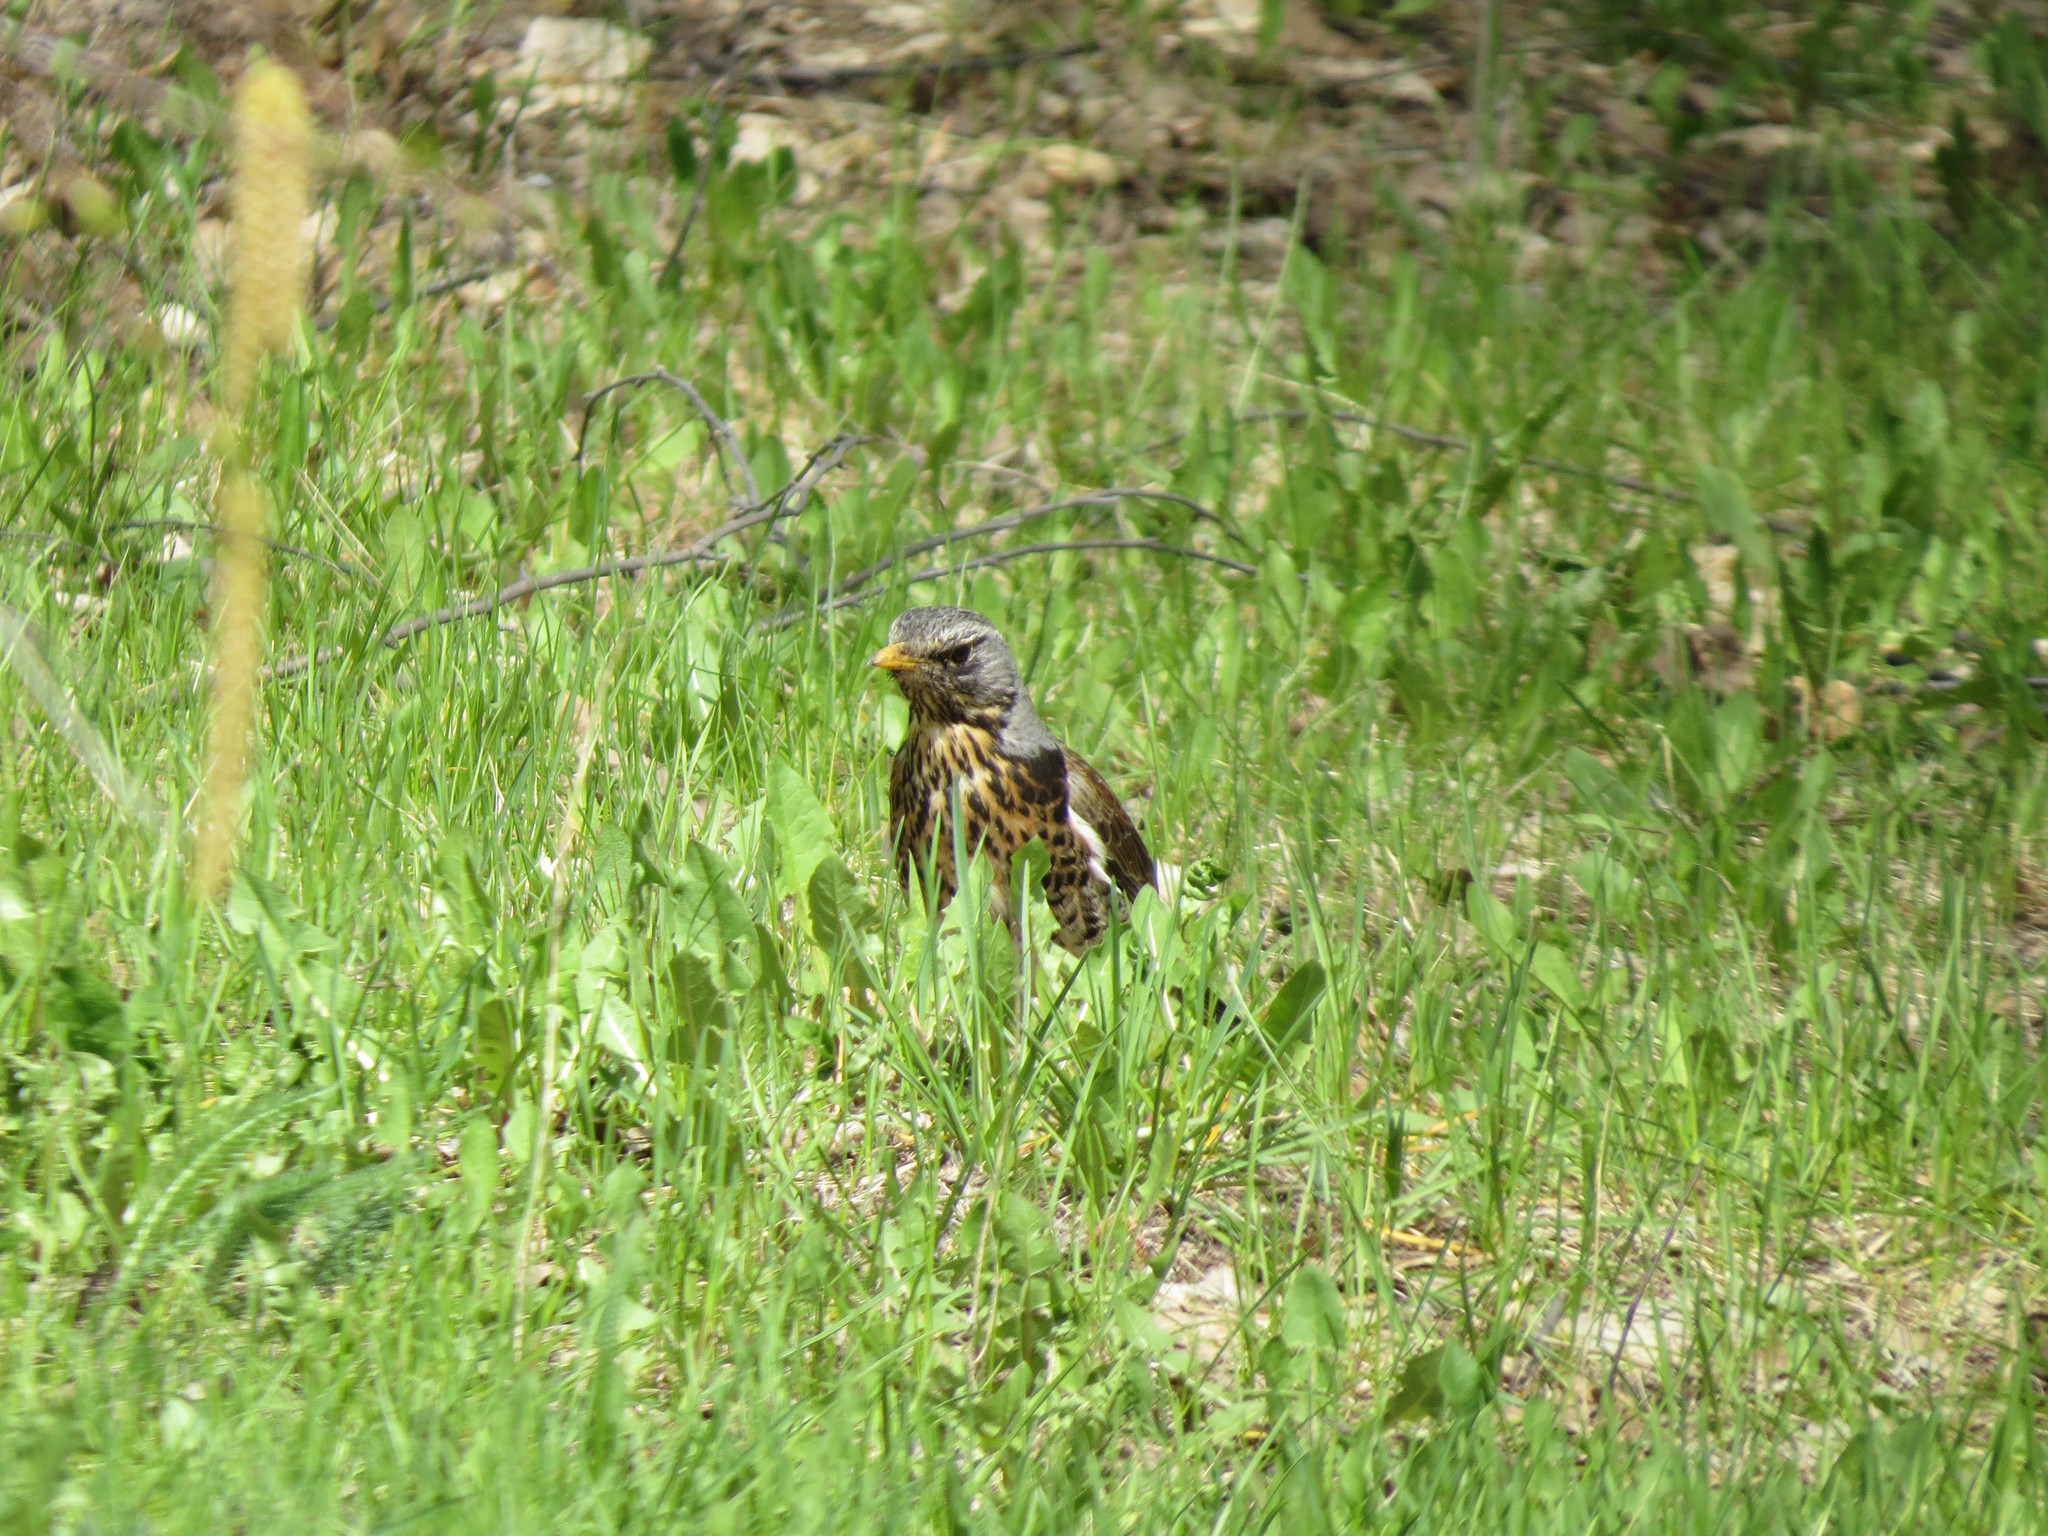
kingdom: Animalia
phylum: Chordata
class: Aves
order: Passeriformes
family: Turdidae
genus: Turdus
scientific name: Turdus pilaris
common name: Fieldfare
